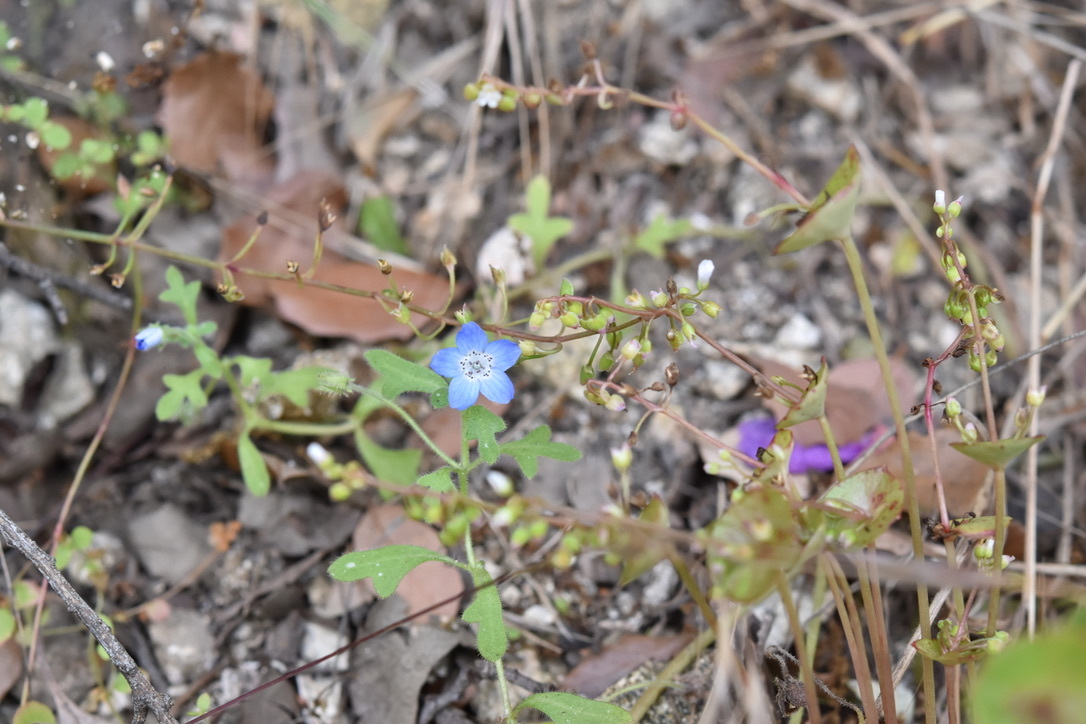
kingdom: Plantae
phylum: Tracheophyta
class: Magnoliopsida
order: Boraginales
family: Hydrophyllaceae
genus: Nemophila
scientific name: Nemophila menziesii
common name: Baby's-blue-eyes
